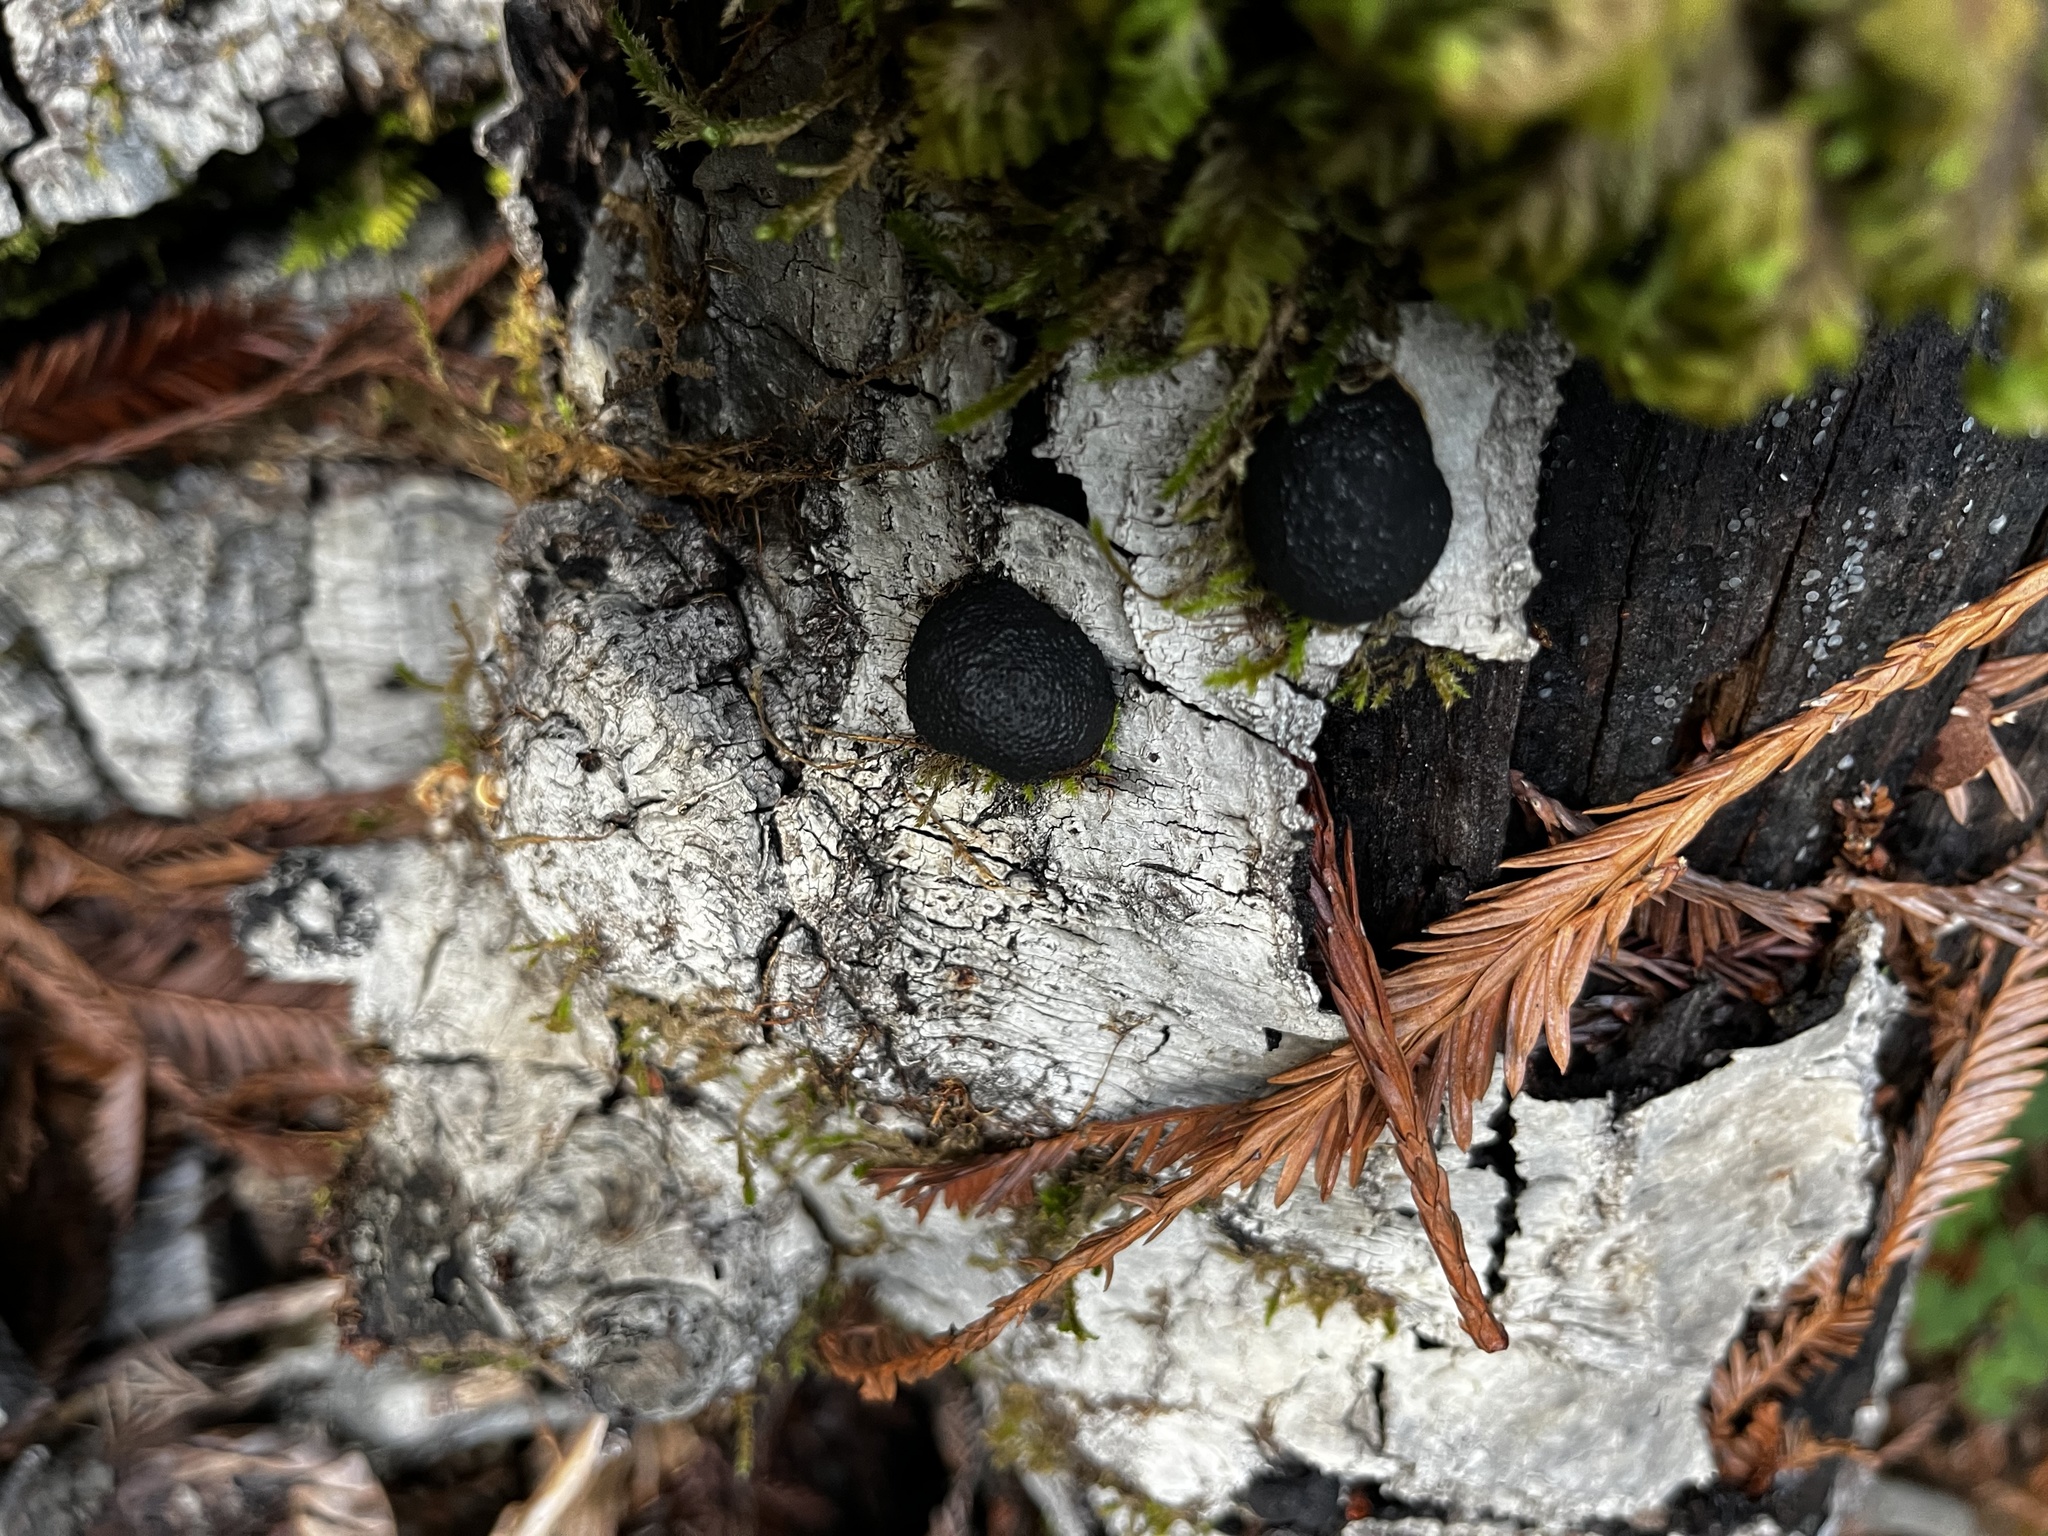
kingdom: Fungi
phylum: Ascomycota
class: Sordariomycetes
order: Xylariales
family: Hypoxylaceae
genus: Annulohypoxylon
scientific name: Annulohypoxylon thouarsianum
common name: Cramp balls
